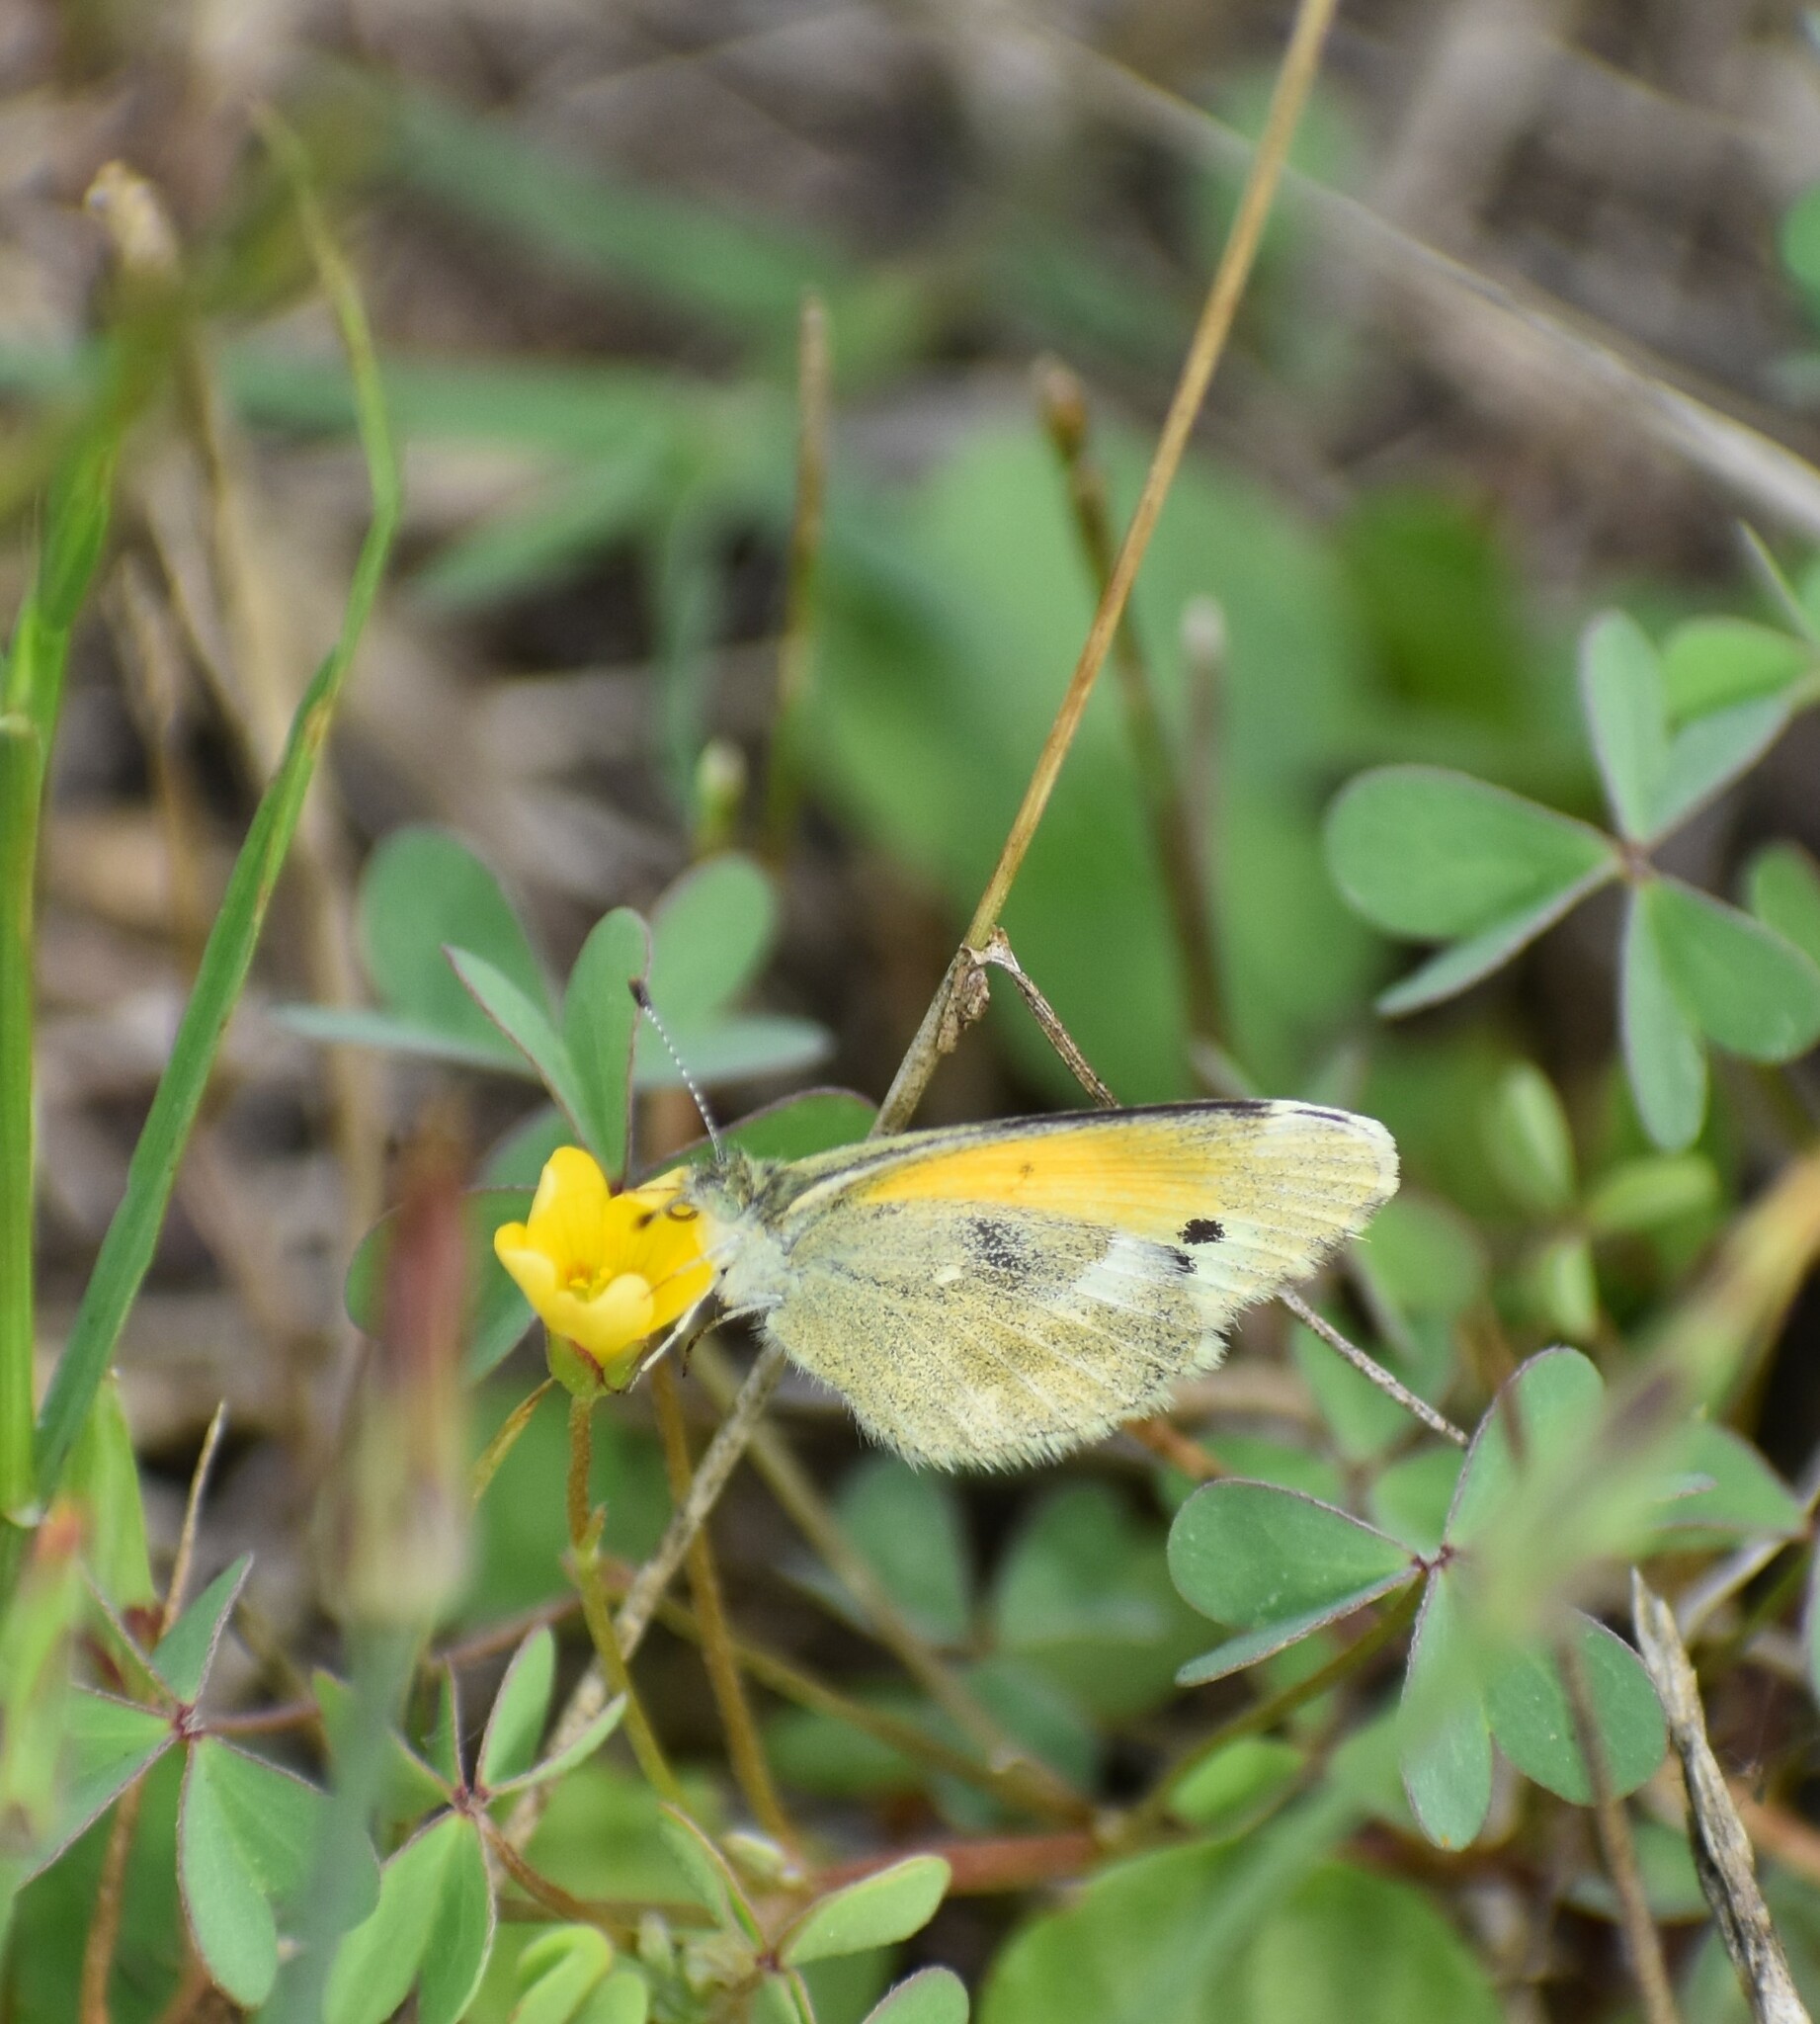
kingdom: Animalia
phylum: Arthropoda
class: Insecta
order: Lepidoptera
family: Pieridae
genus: Nathalis
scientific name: Nathalis iole
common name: Dainty sulphur
